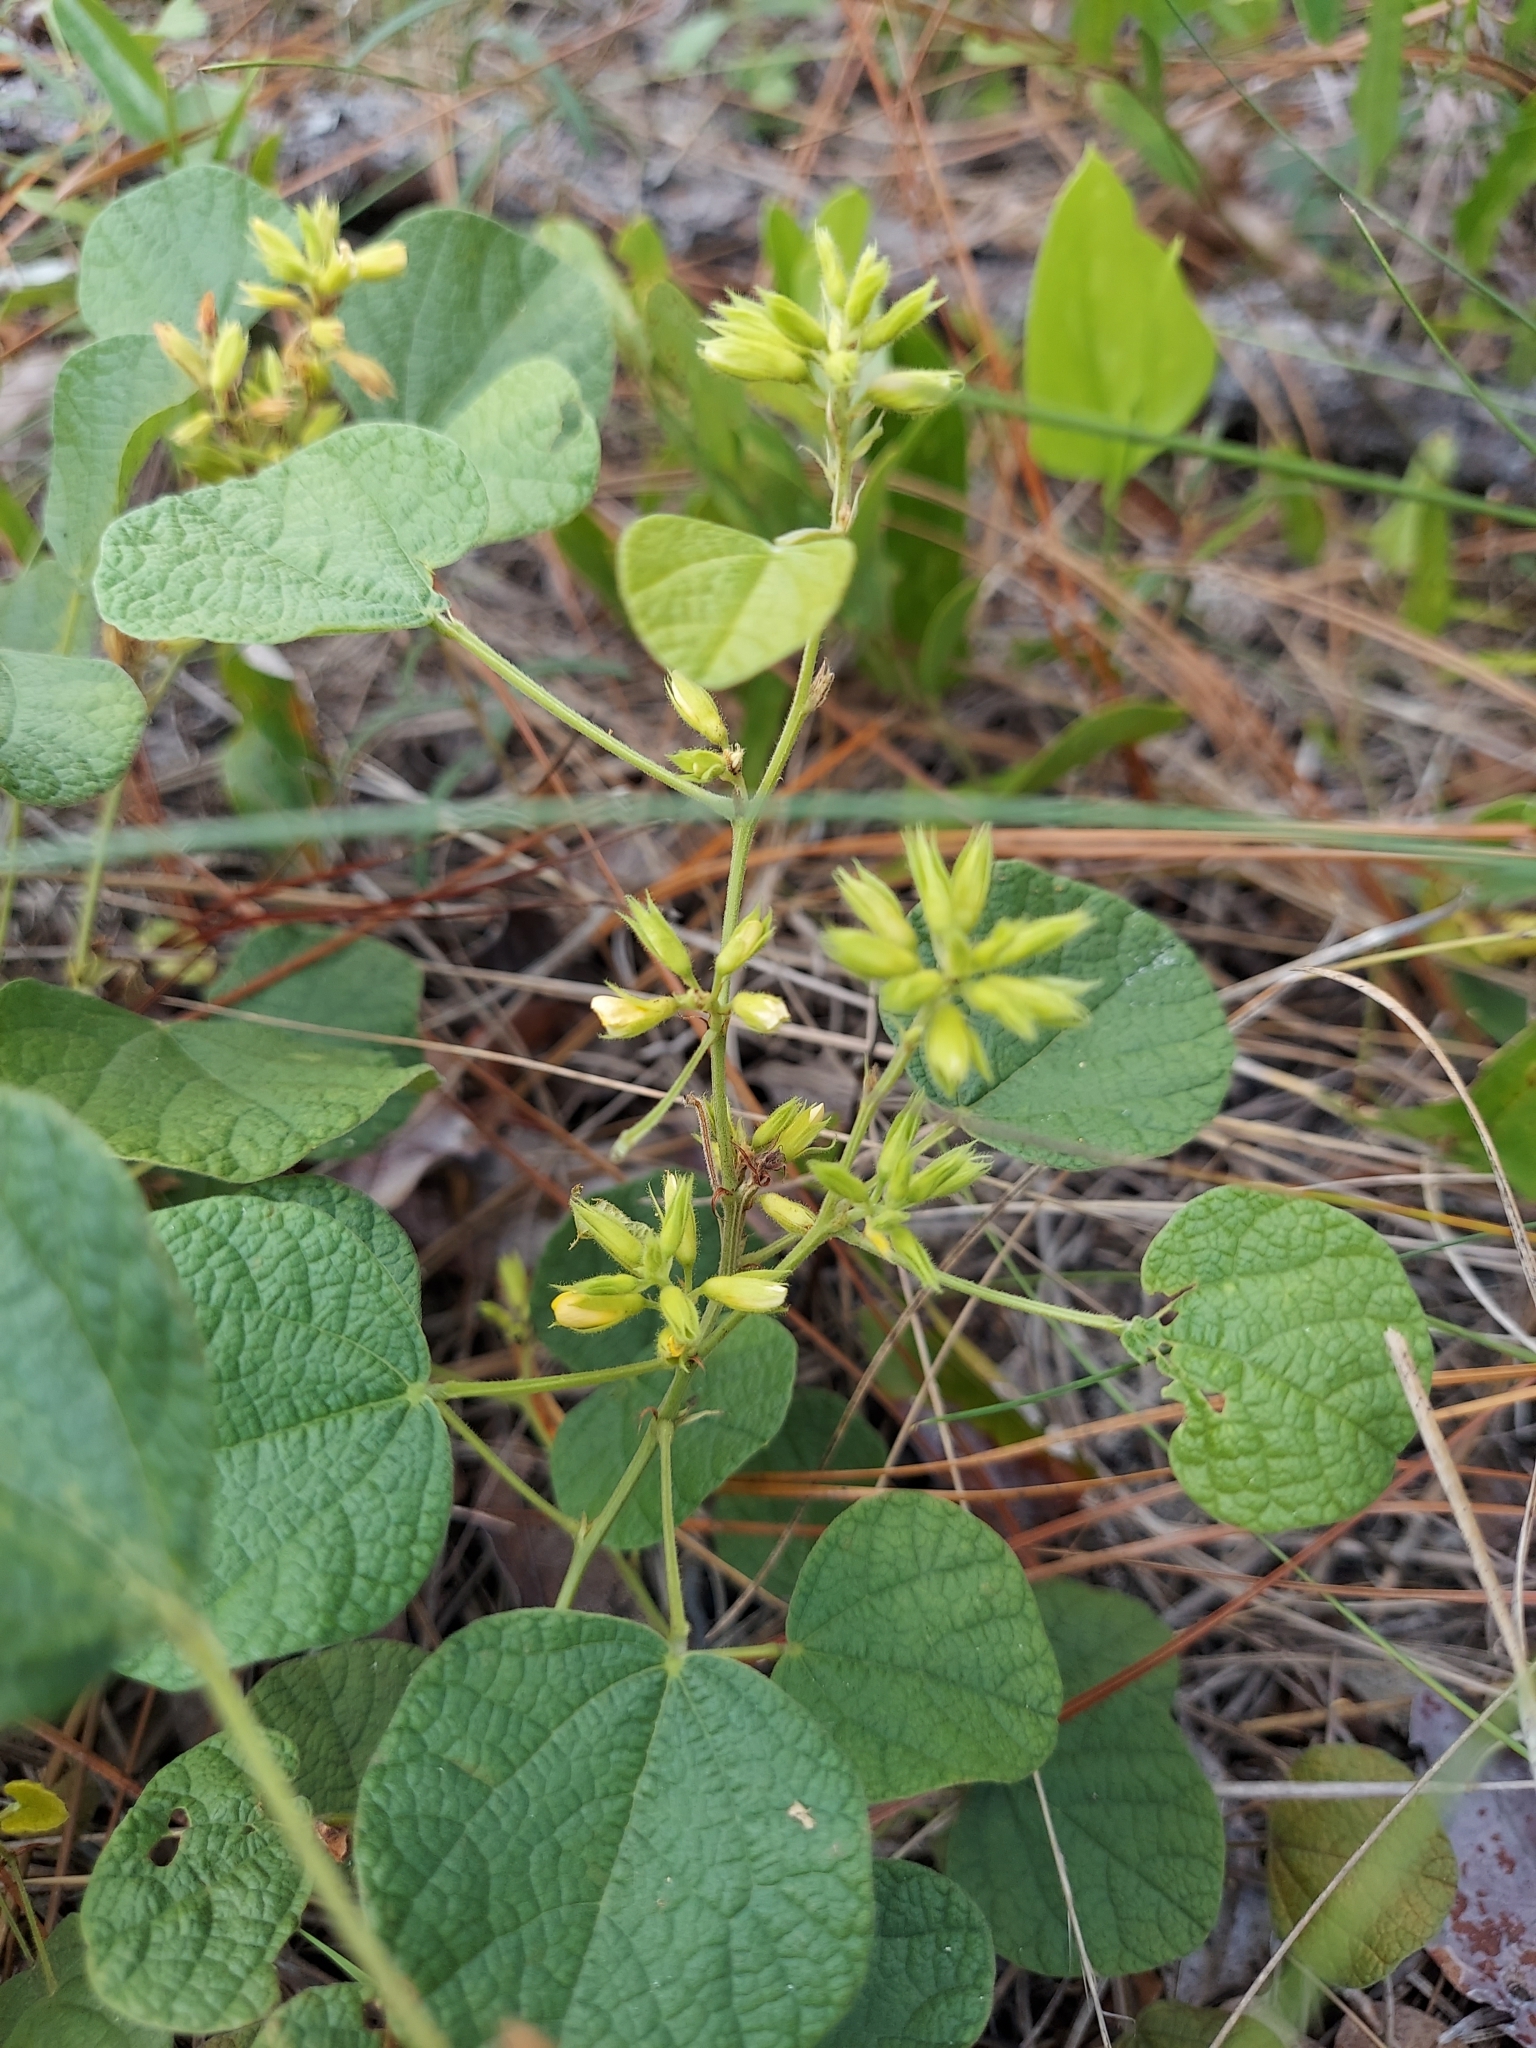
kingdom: Plantae
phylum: Tracheophyta
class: Magnoliopsida
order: Fabales
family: Fabaceae
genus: Rhynchosia
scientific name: Rhynchosia michauxii
